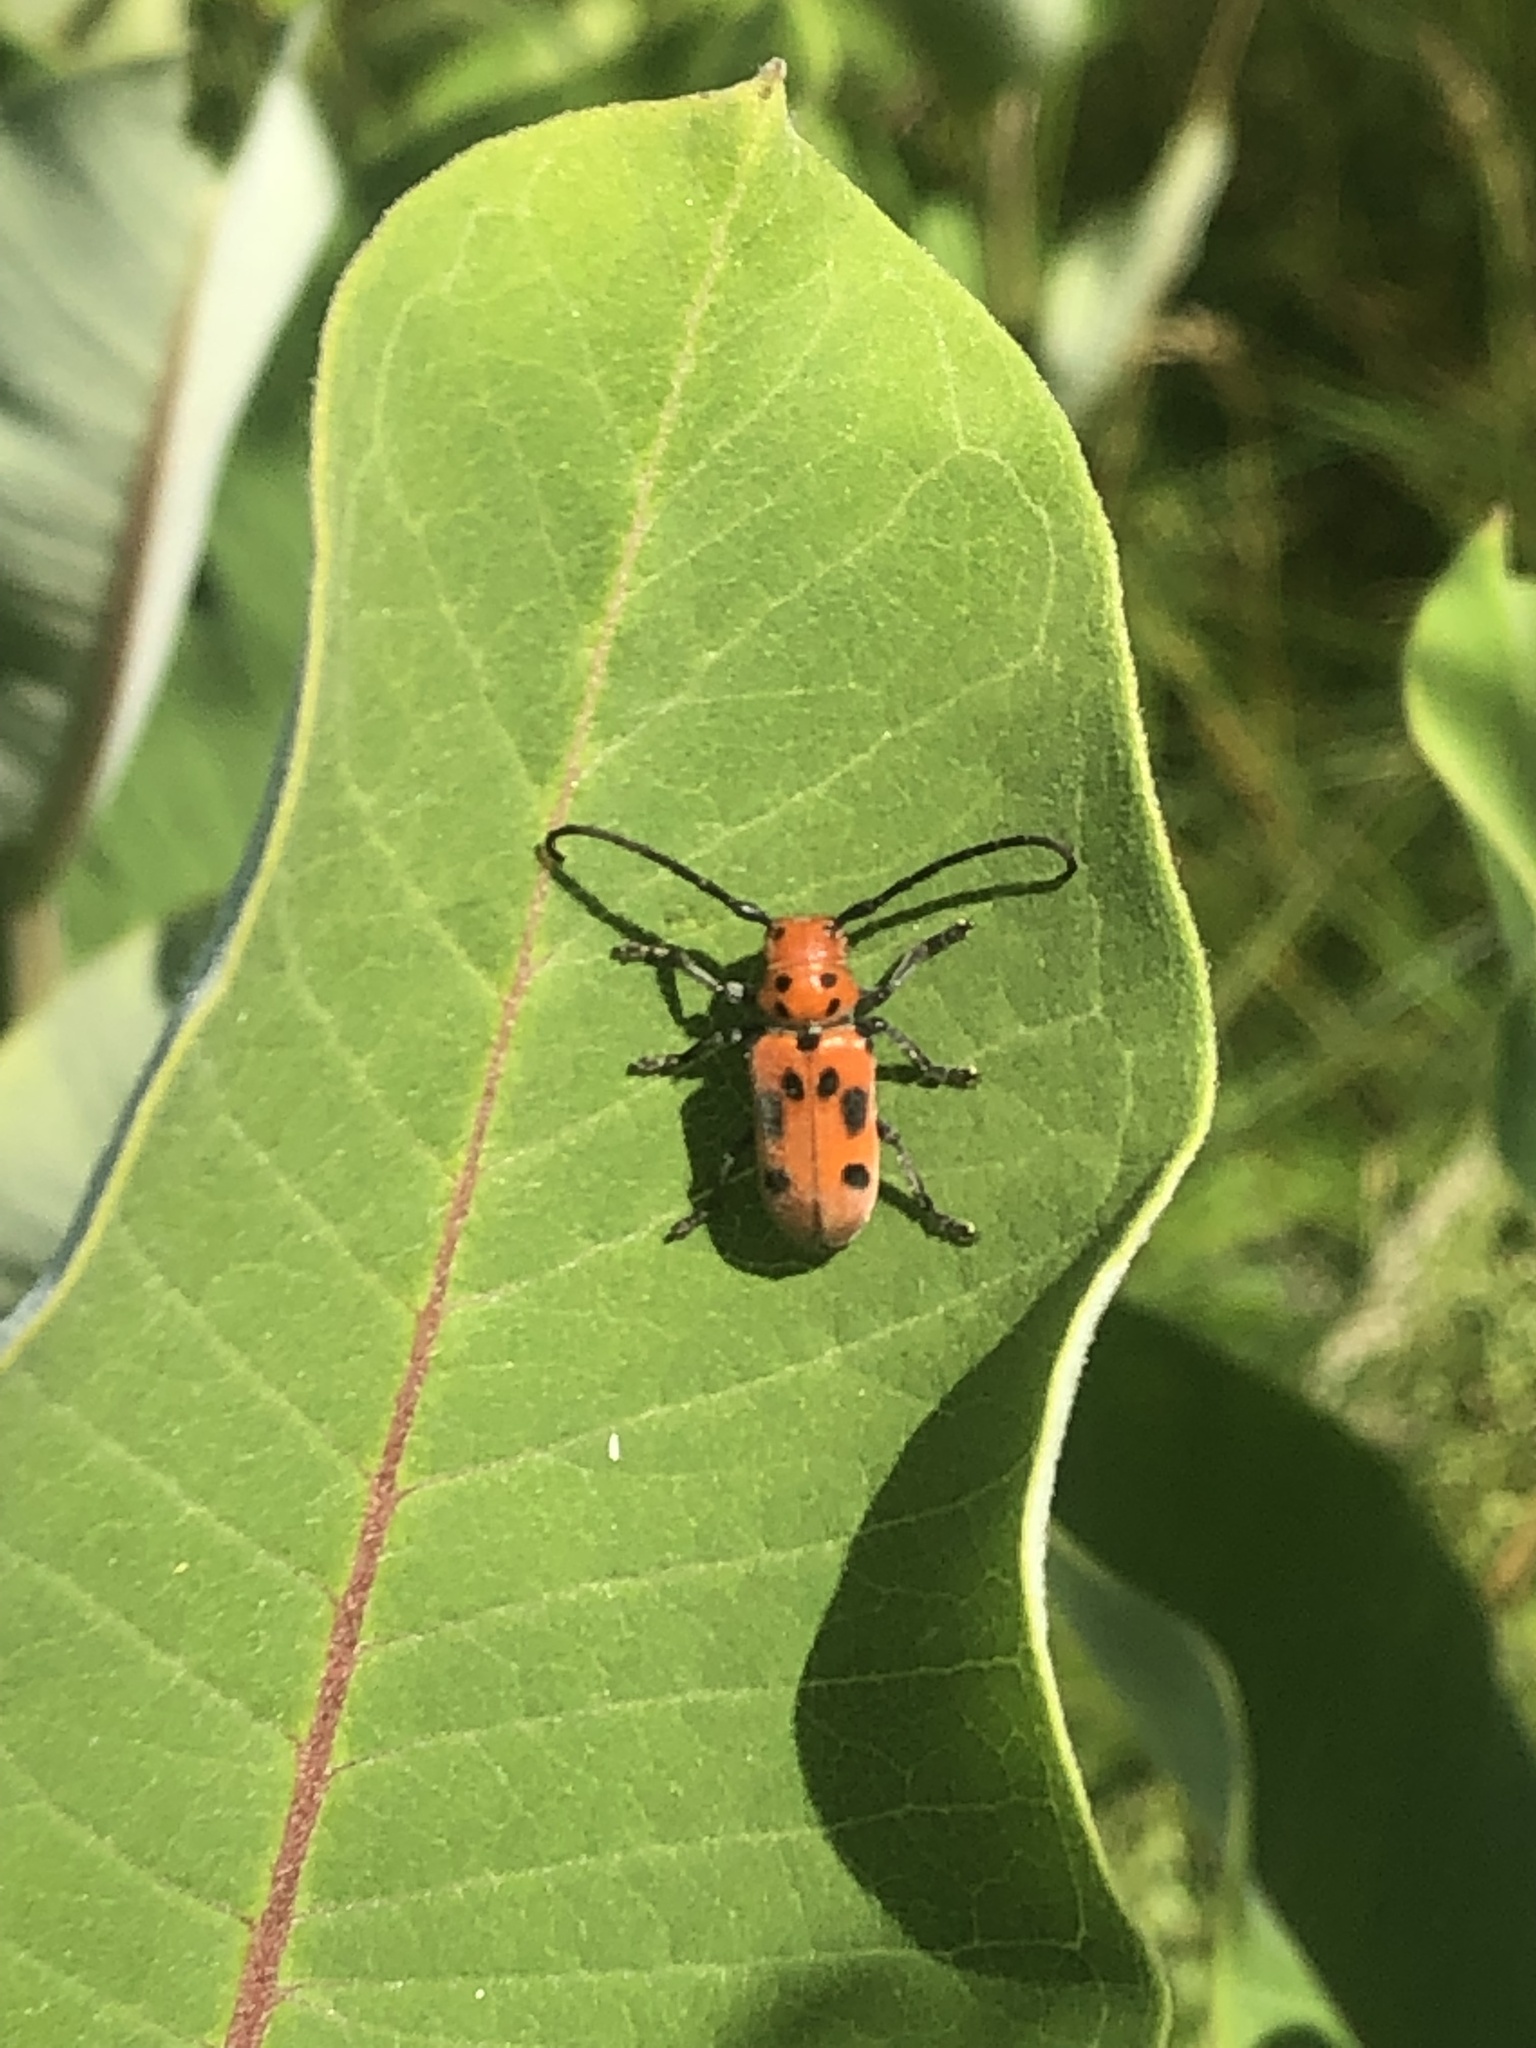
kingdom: Animalia
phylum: Arthropoda
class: Insecta
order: Coleoptera
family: Cerambycidae
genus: Tetraopes
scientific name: Tetraopes tetrophthalmus
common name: Red milkweed beetle
